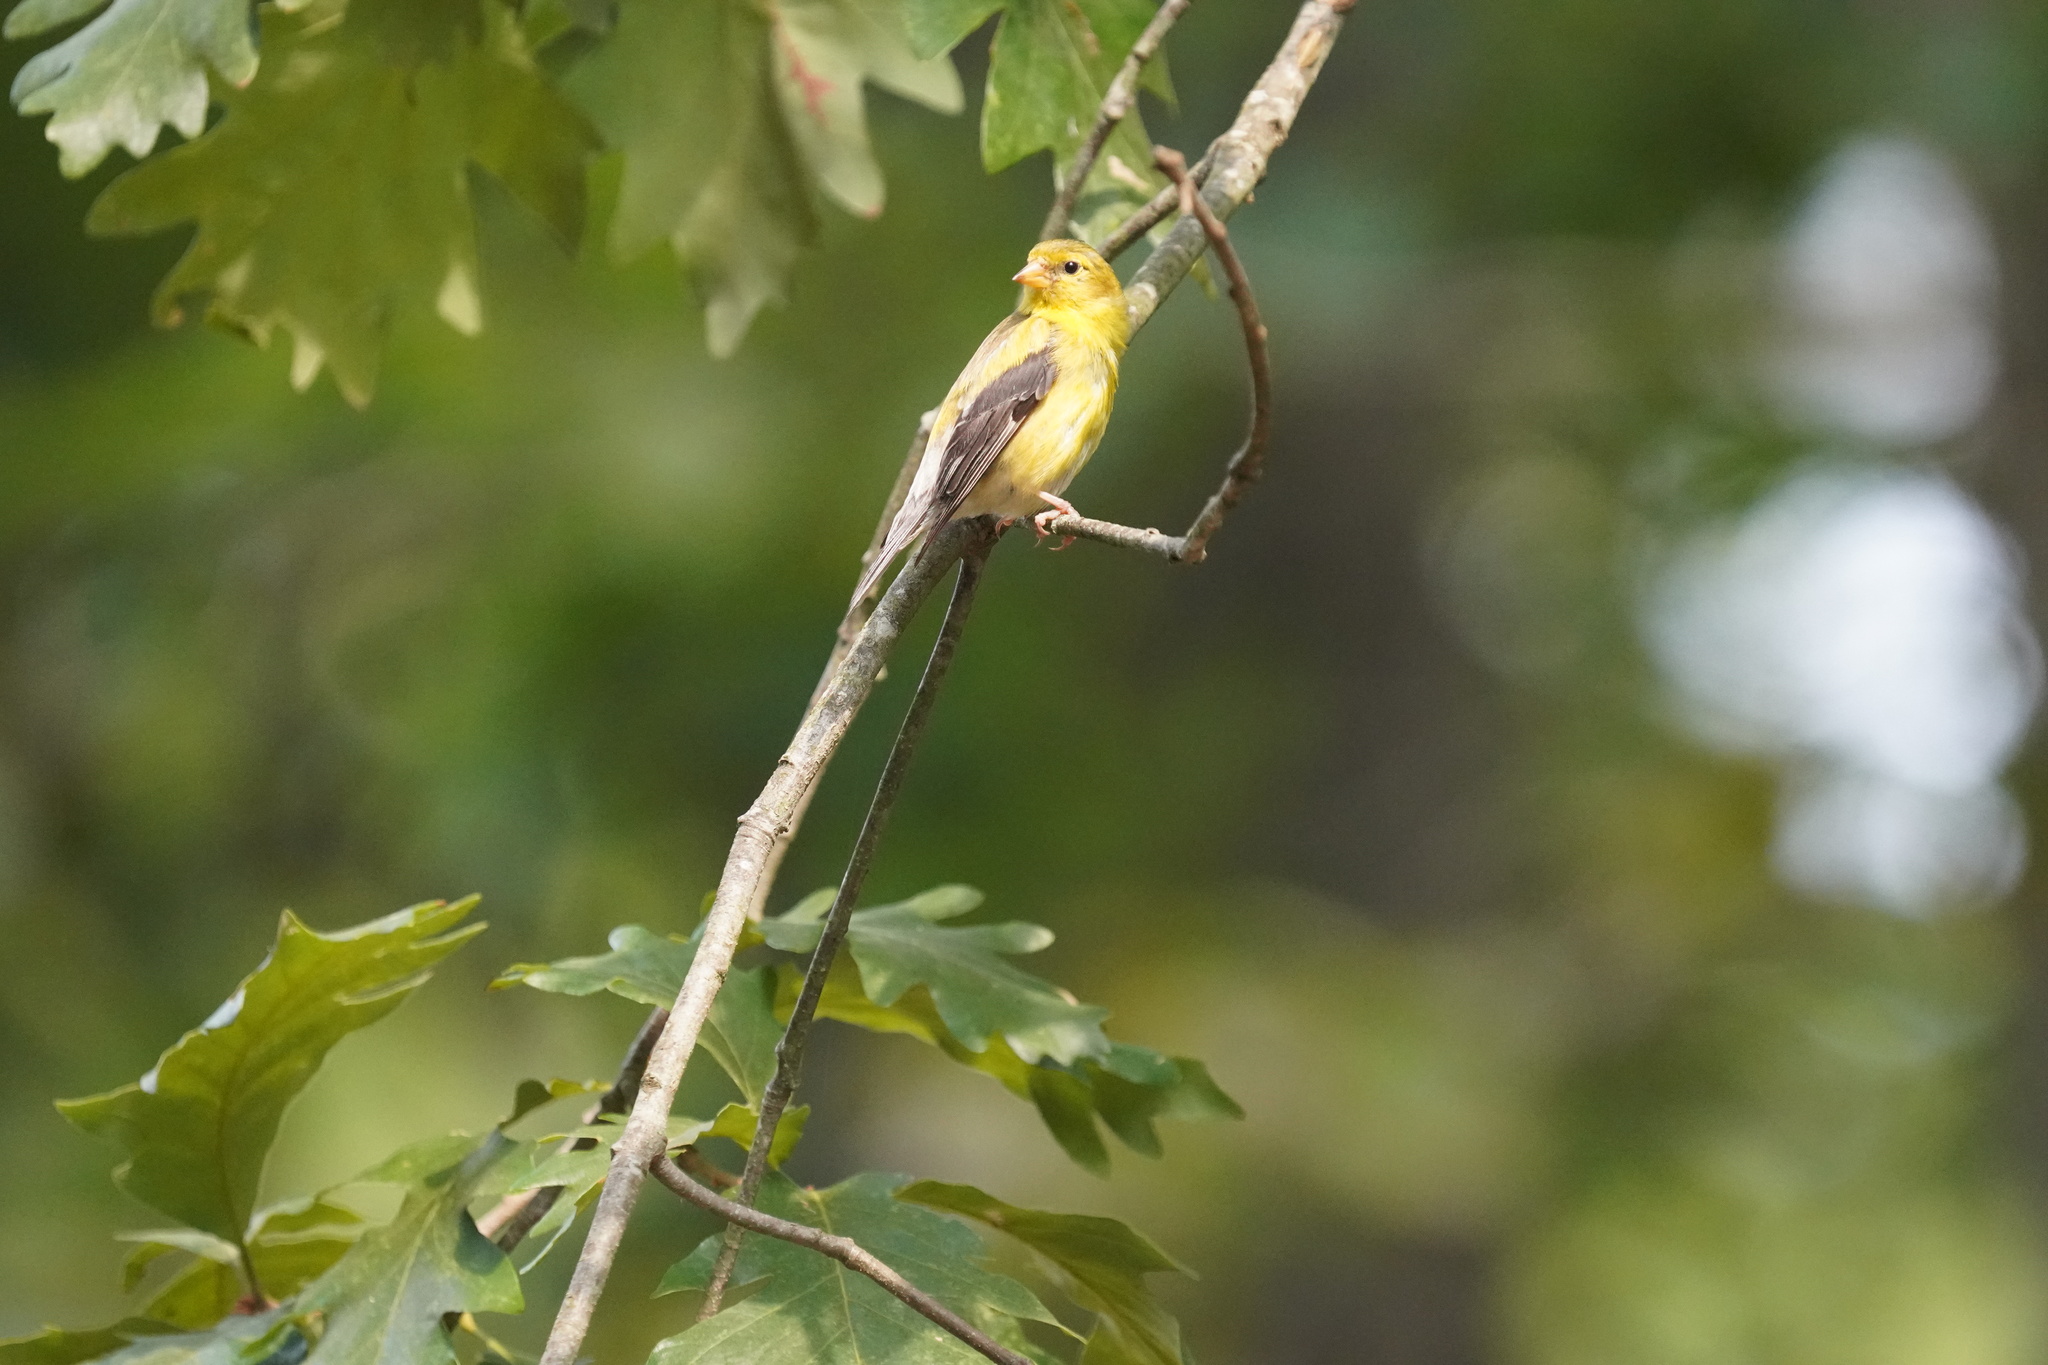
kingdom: Animalia
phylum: Chordata
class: Aves
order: Passeriformes
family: Fringillidae
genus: Spinus
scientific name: Spinus tristis
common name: American goldfinch
